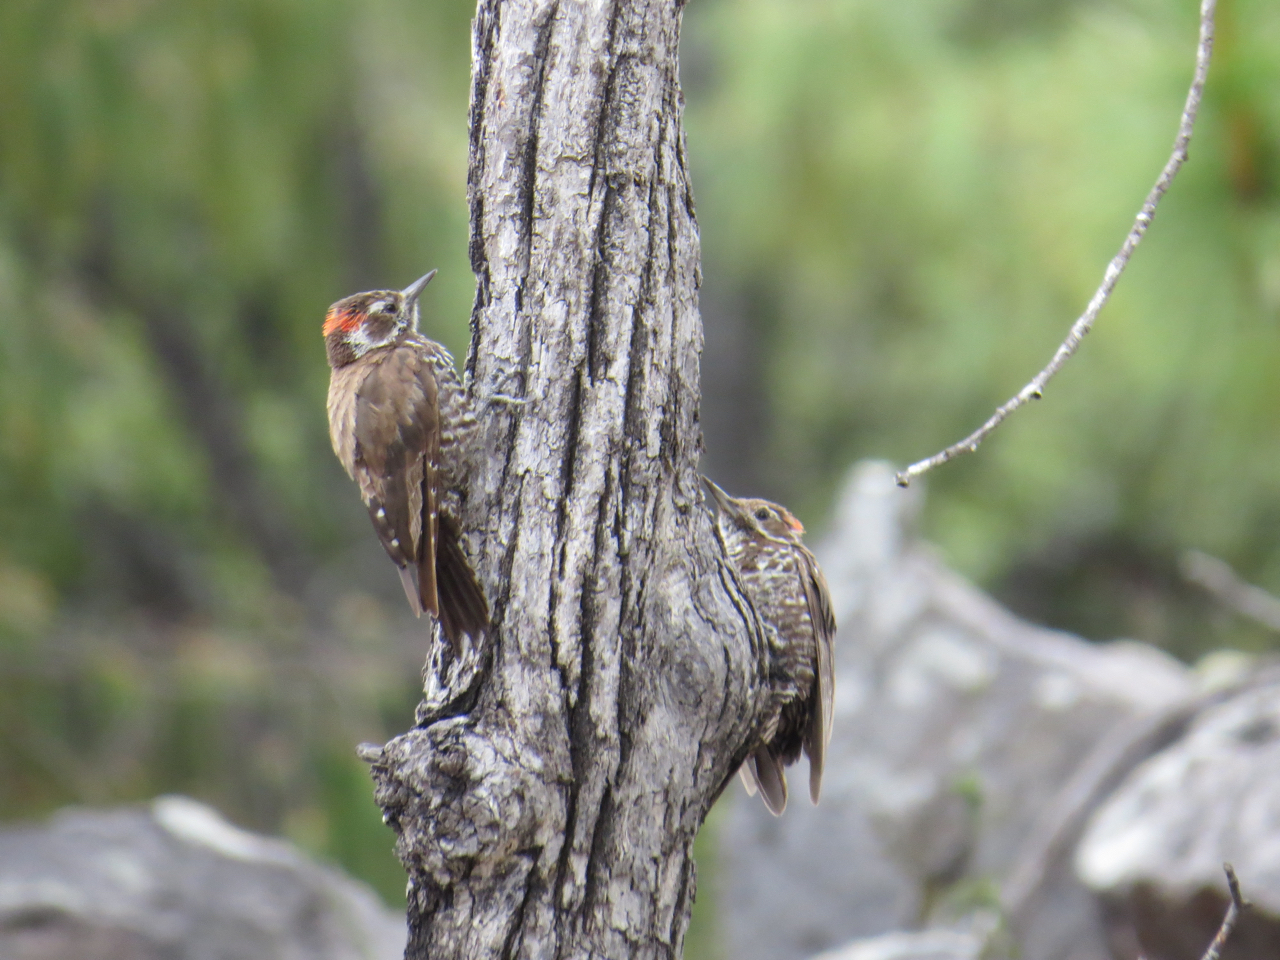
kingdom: Animalia
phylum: Chordata
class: Aves
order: Piciformes
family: Picidae
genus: Leuconotopicus
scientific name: Leuconotopicus arizonae
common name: Arizona woodpecker
